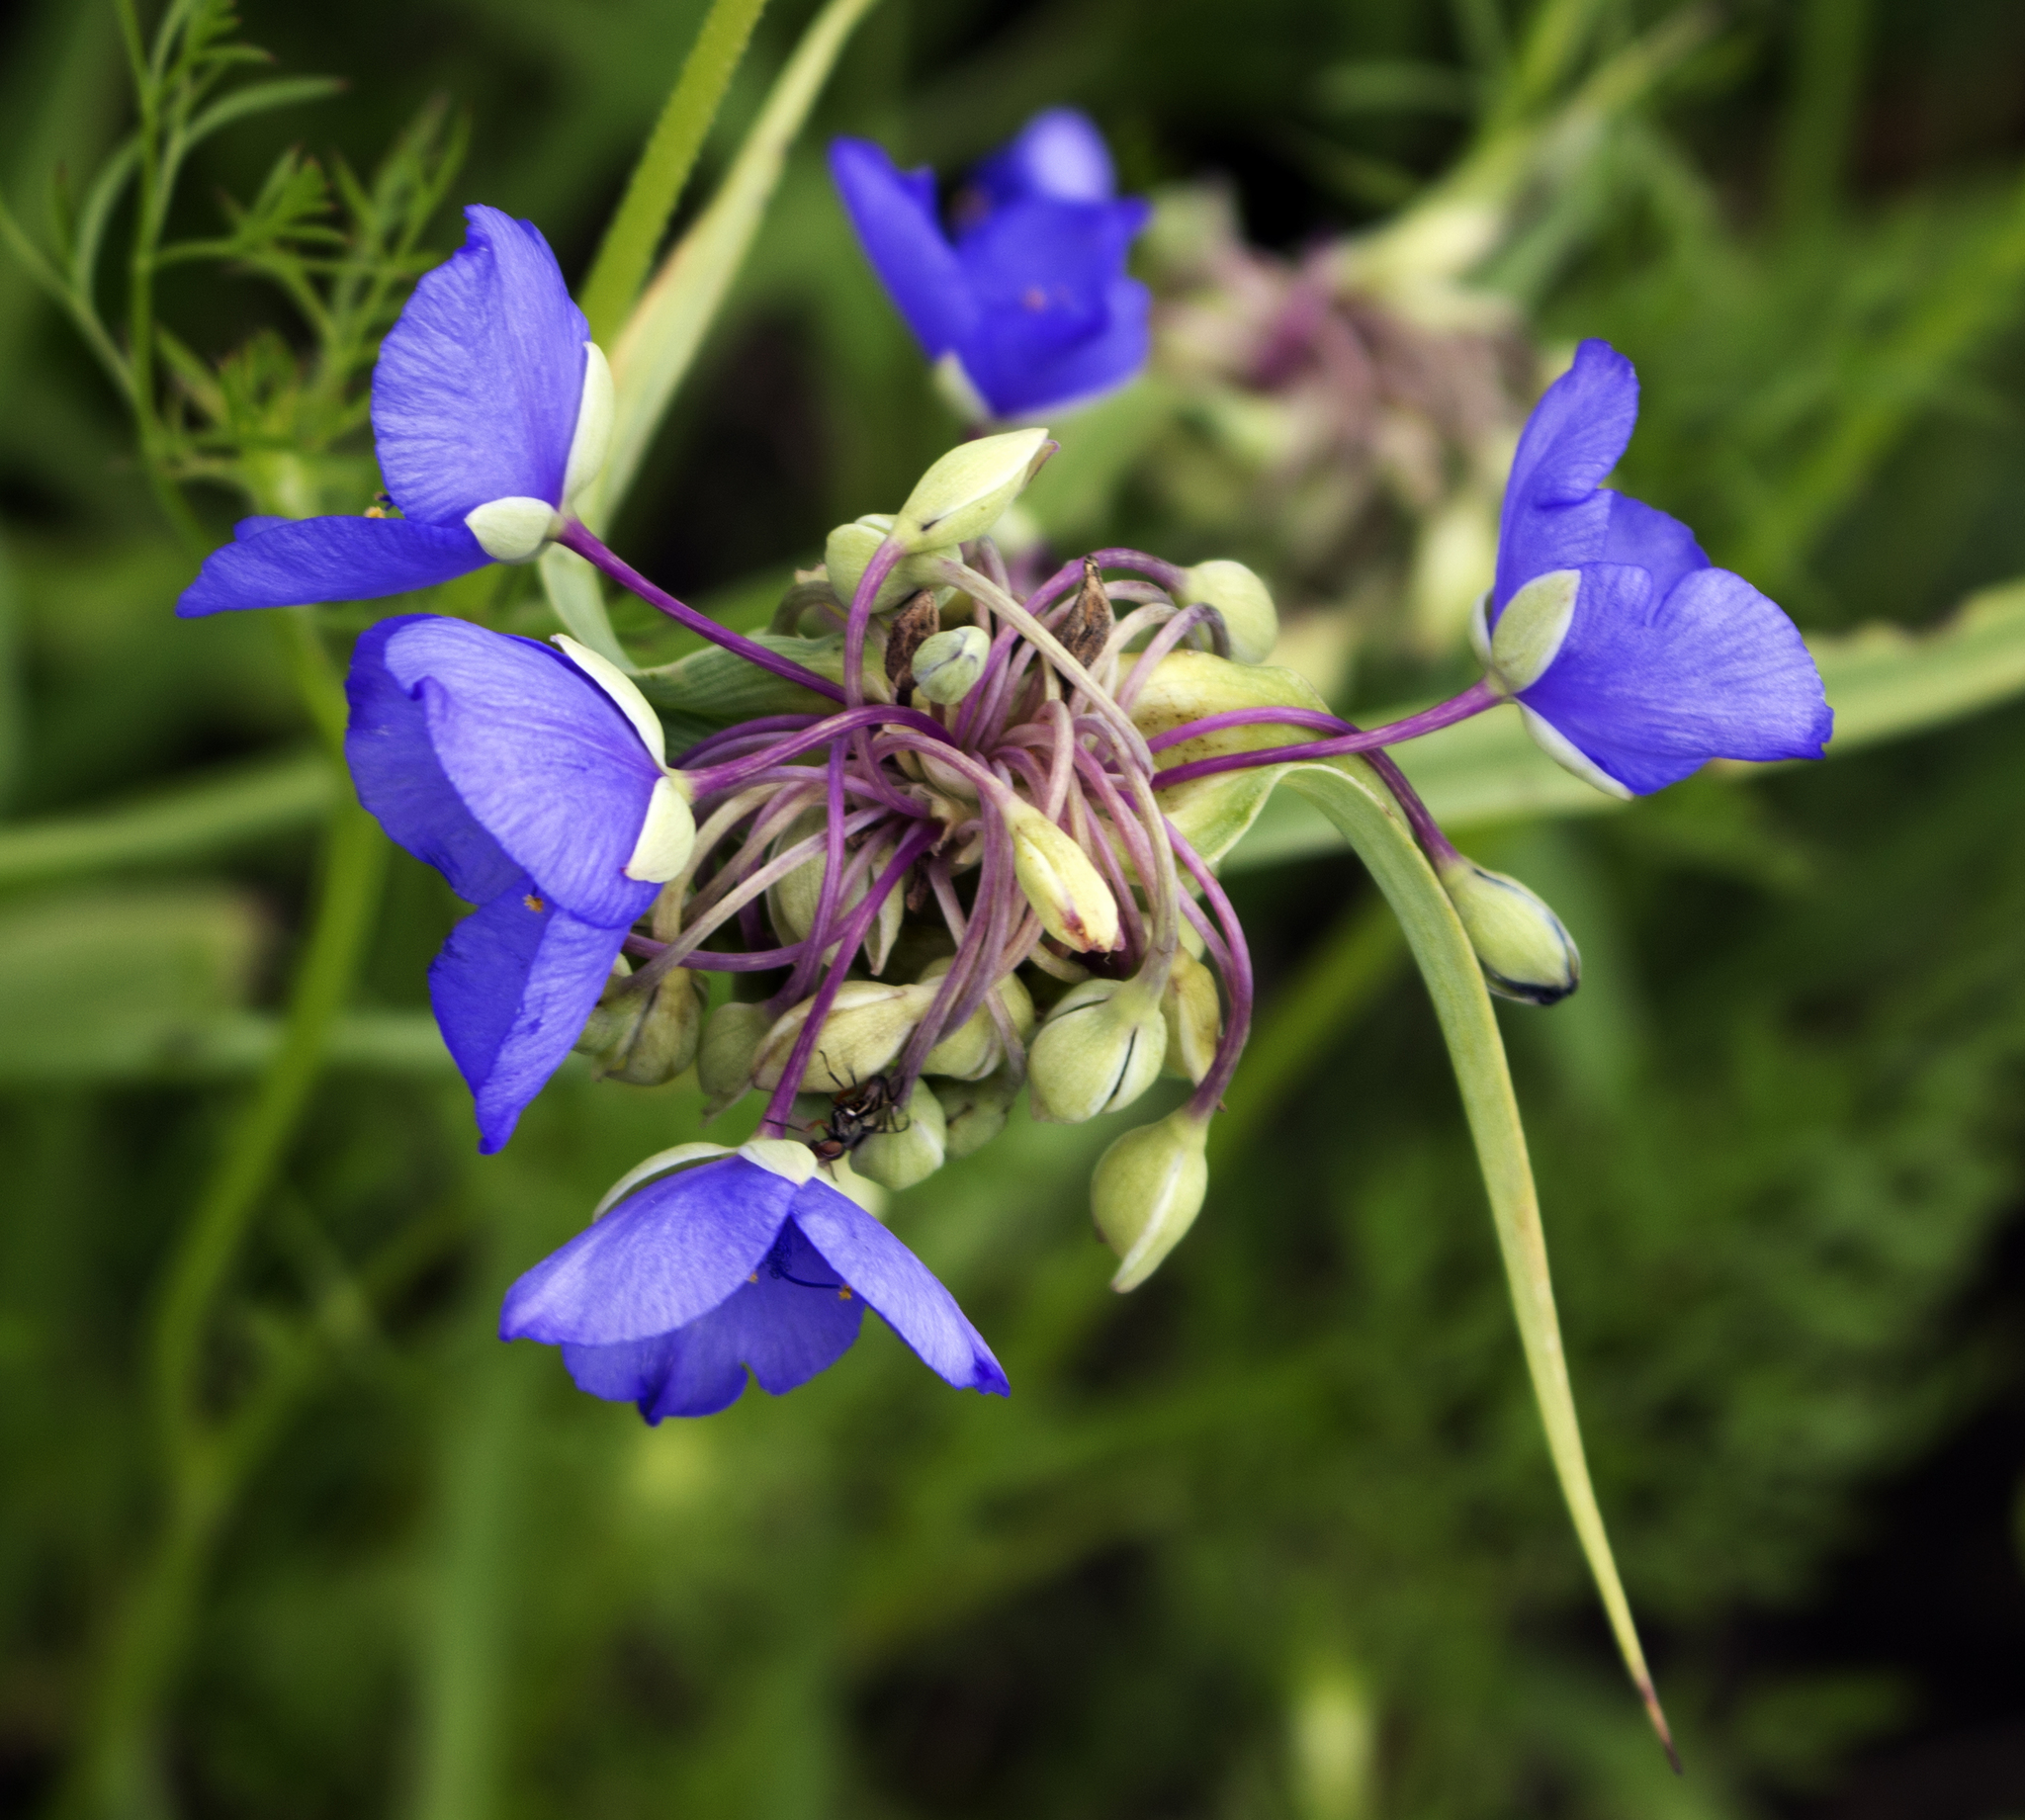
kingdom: Plantae
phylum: Tracheophyta
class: Liliopsida
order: Commelinales
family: Commelinaceae
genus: Tradescantia
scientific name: Tradescantia ohiensis
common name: Ohio spiderwort
